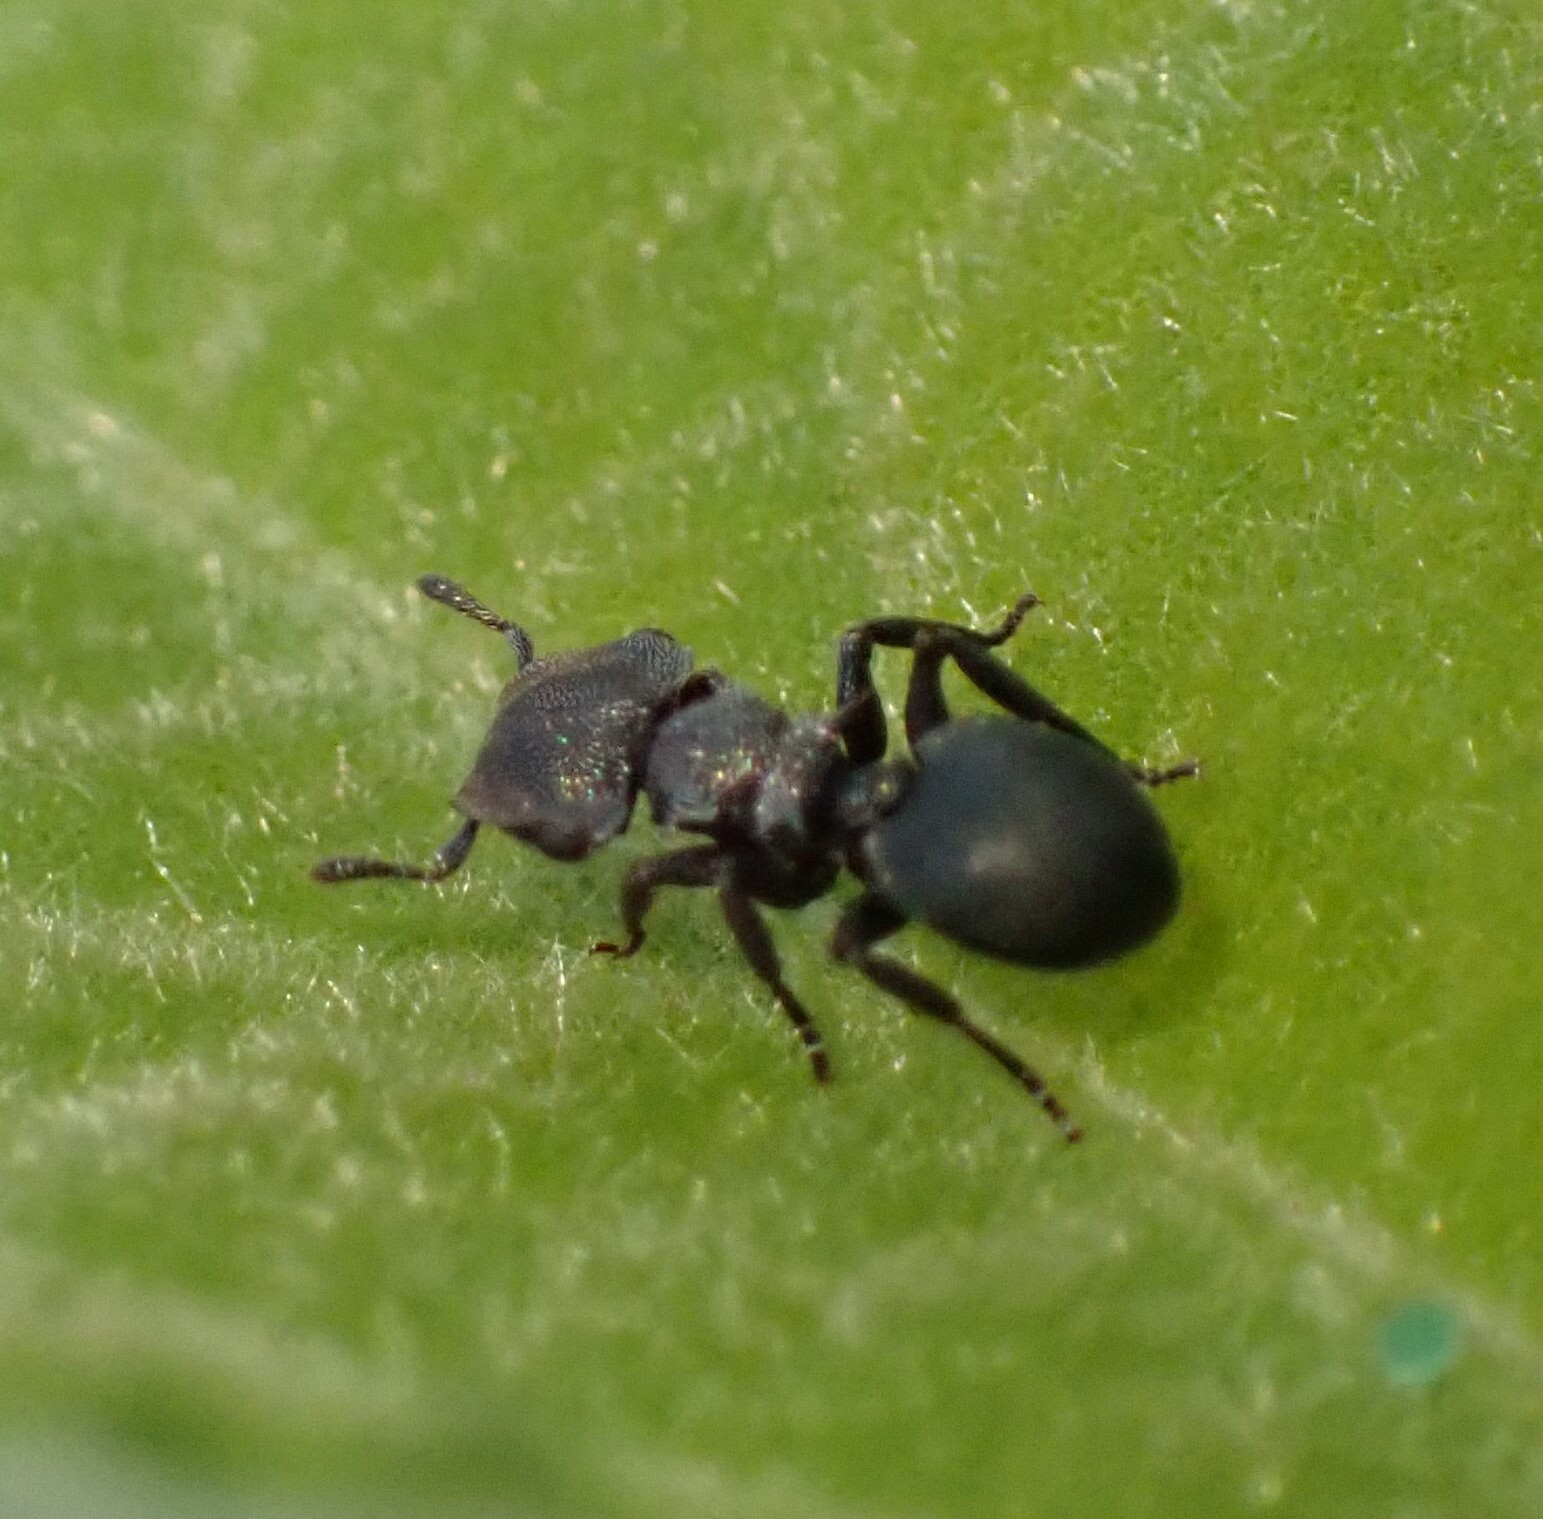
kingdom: Animalia
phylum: Arthropoda
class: Insecta
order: Hymenoptera
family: Formicidae
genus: Cephalotes
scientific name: Cephalotes pusillus
